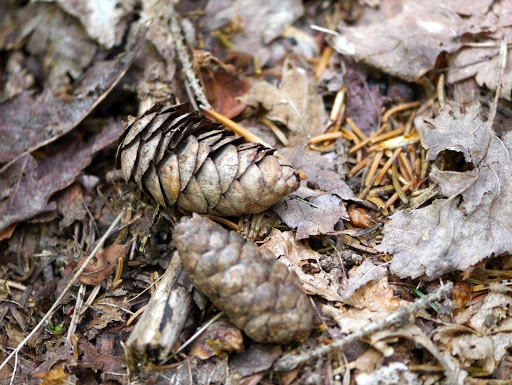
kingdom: Plantae
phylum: Tracheophyta
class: Pinopsida
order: Pinales
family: Pinaceae
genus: Picea
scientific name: Picea rubens
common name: Red spruce
